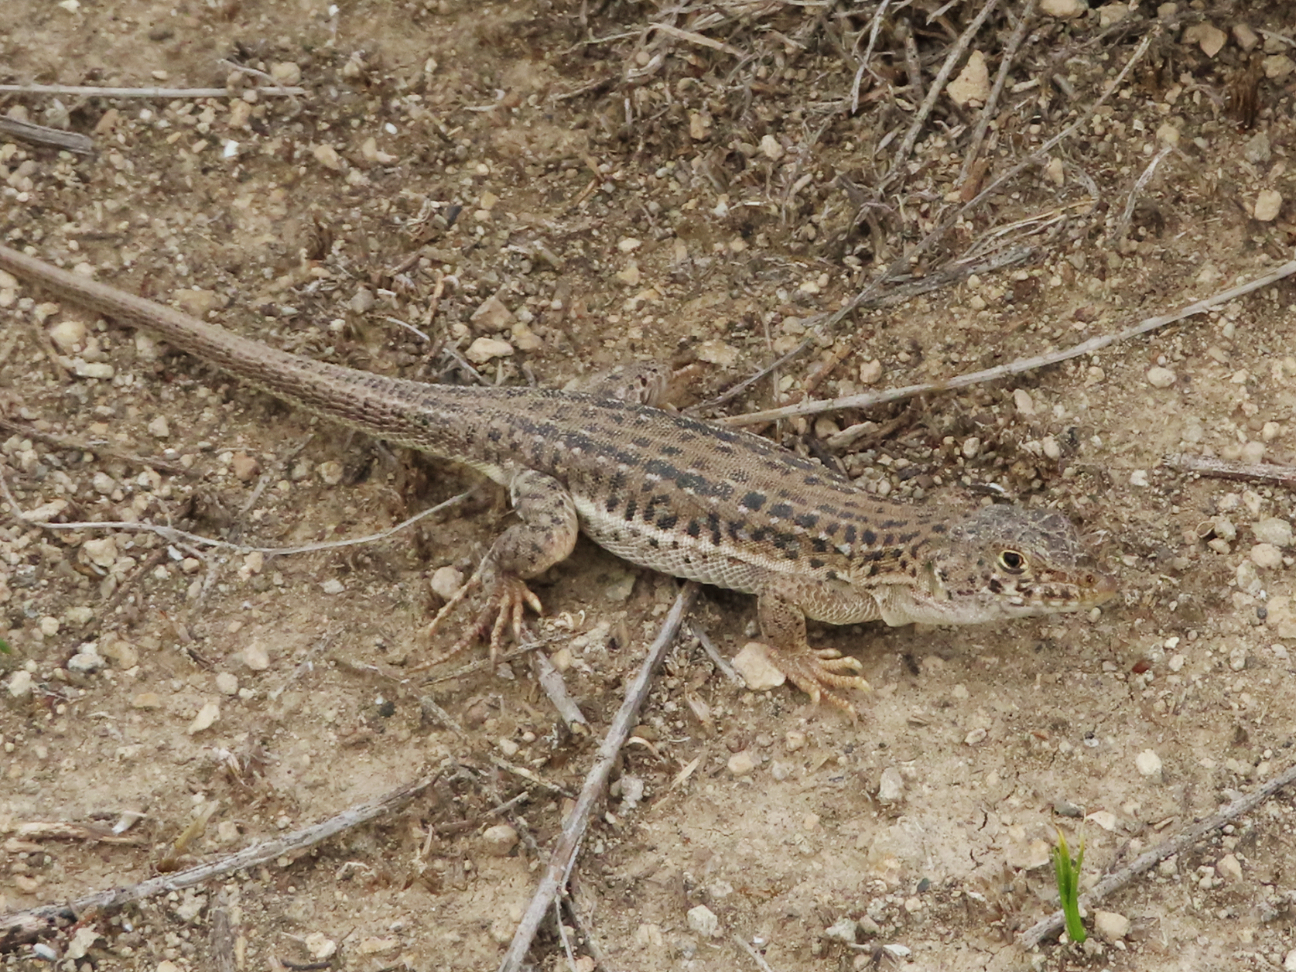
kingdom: Animalia
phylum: Chordata
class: Squamata
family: Lacertidae
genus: Eremias
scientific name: Eremias strauchi
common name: Strauch's racerunner
